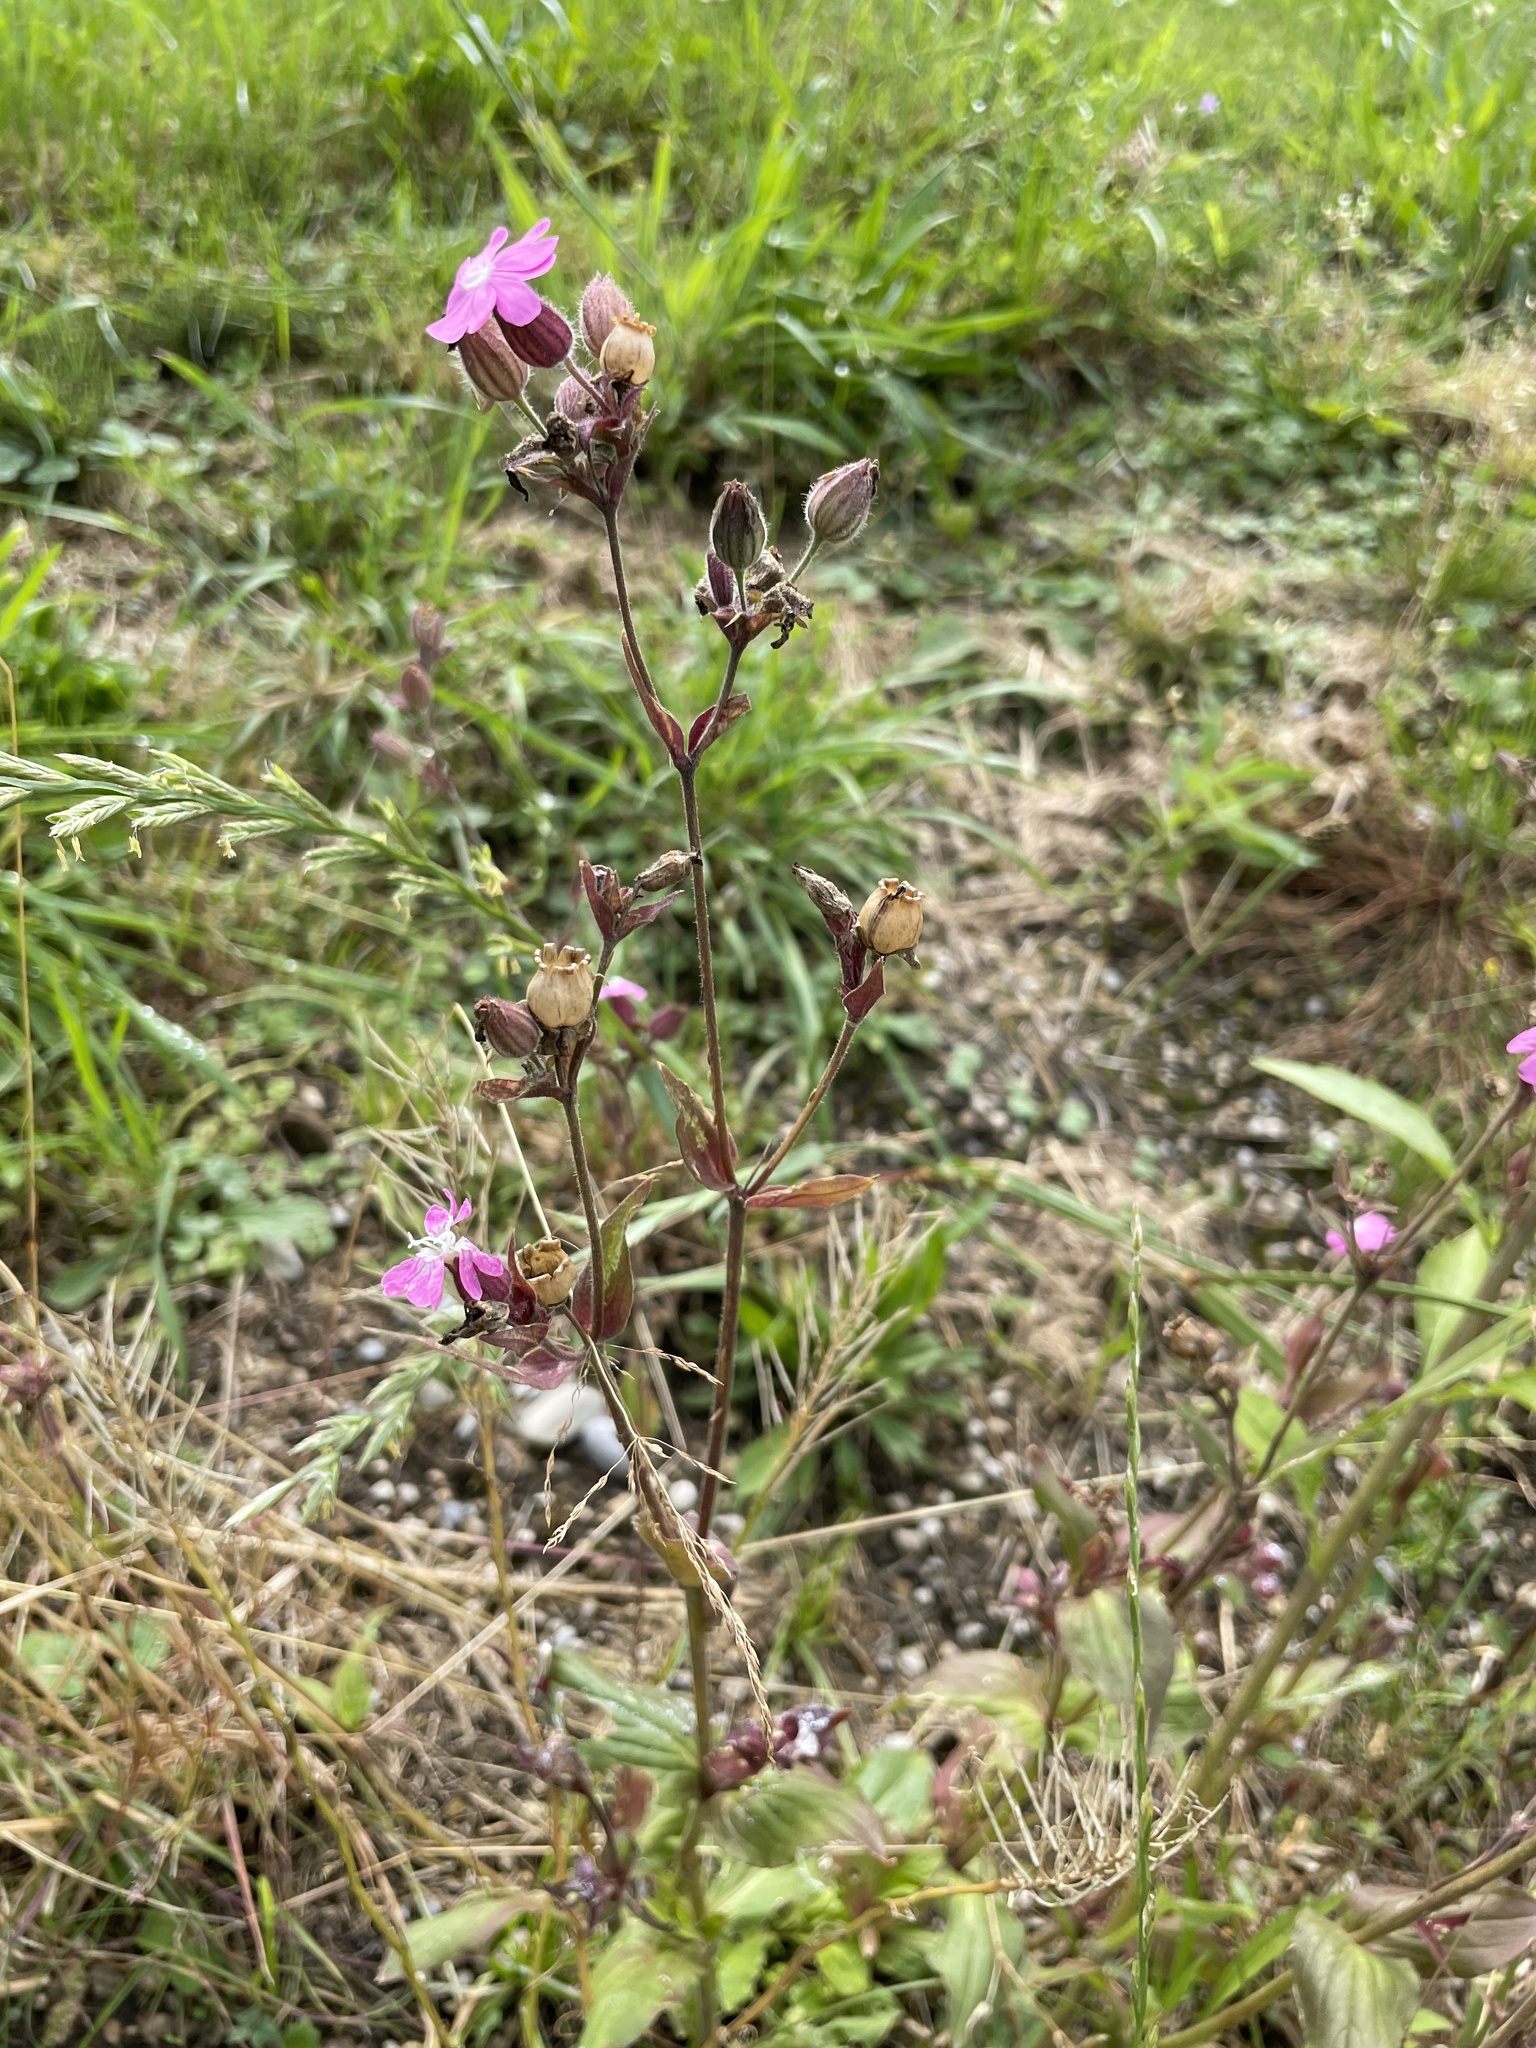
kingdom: Plantae
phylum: Tracheophyta
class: Magnoliopsida
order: Caryophyllales
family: Caryophyllaceae
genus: Silene
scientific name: Silene dioica
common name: Red campion
